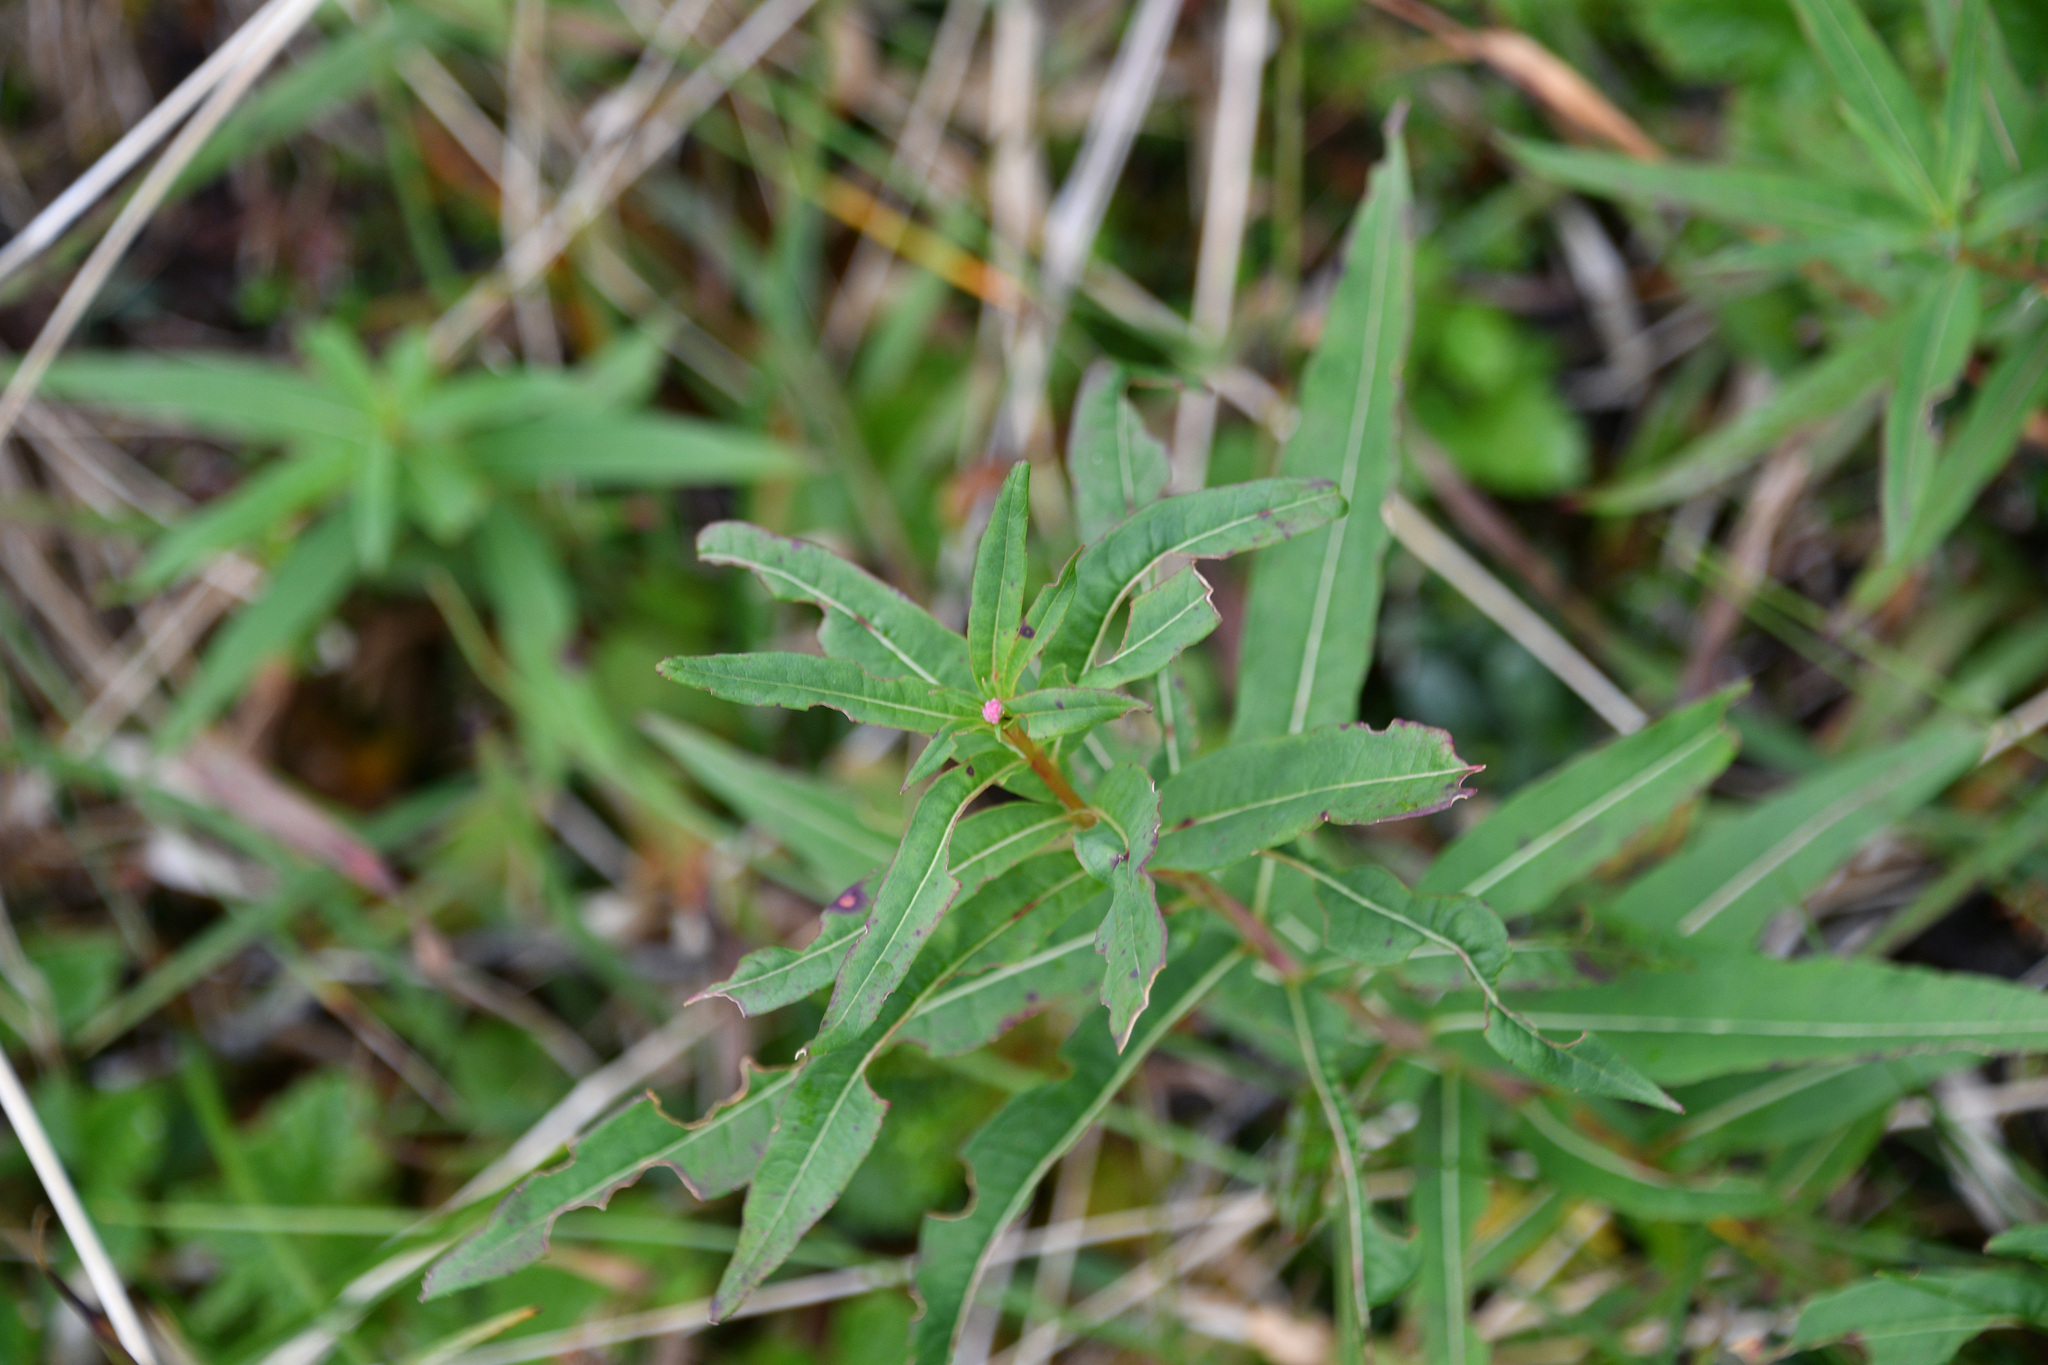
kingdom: Plantae
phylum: Tracheophyta
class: Magnoliopsida
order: Myrtales
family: Onagraceae
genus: Chamaenerion
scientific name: Chamaenerion angustifolium
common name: Fireweed
